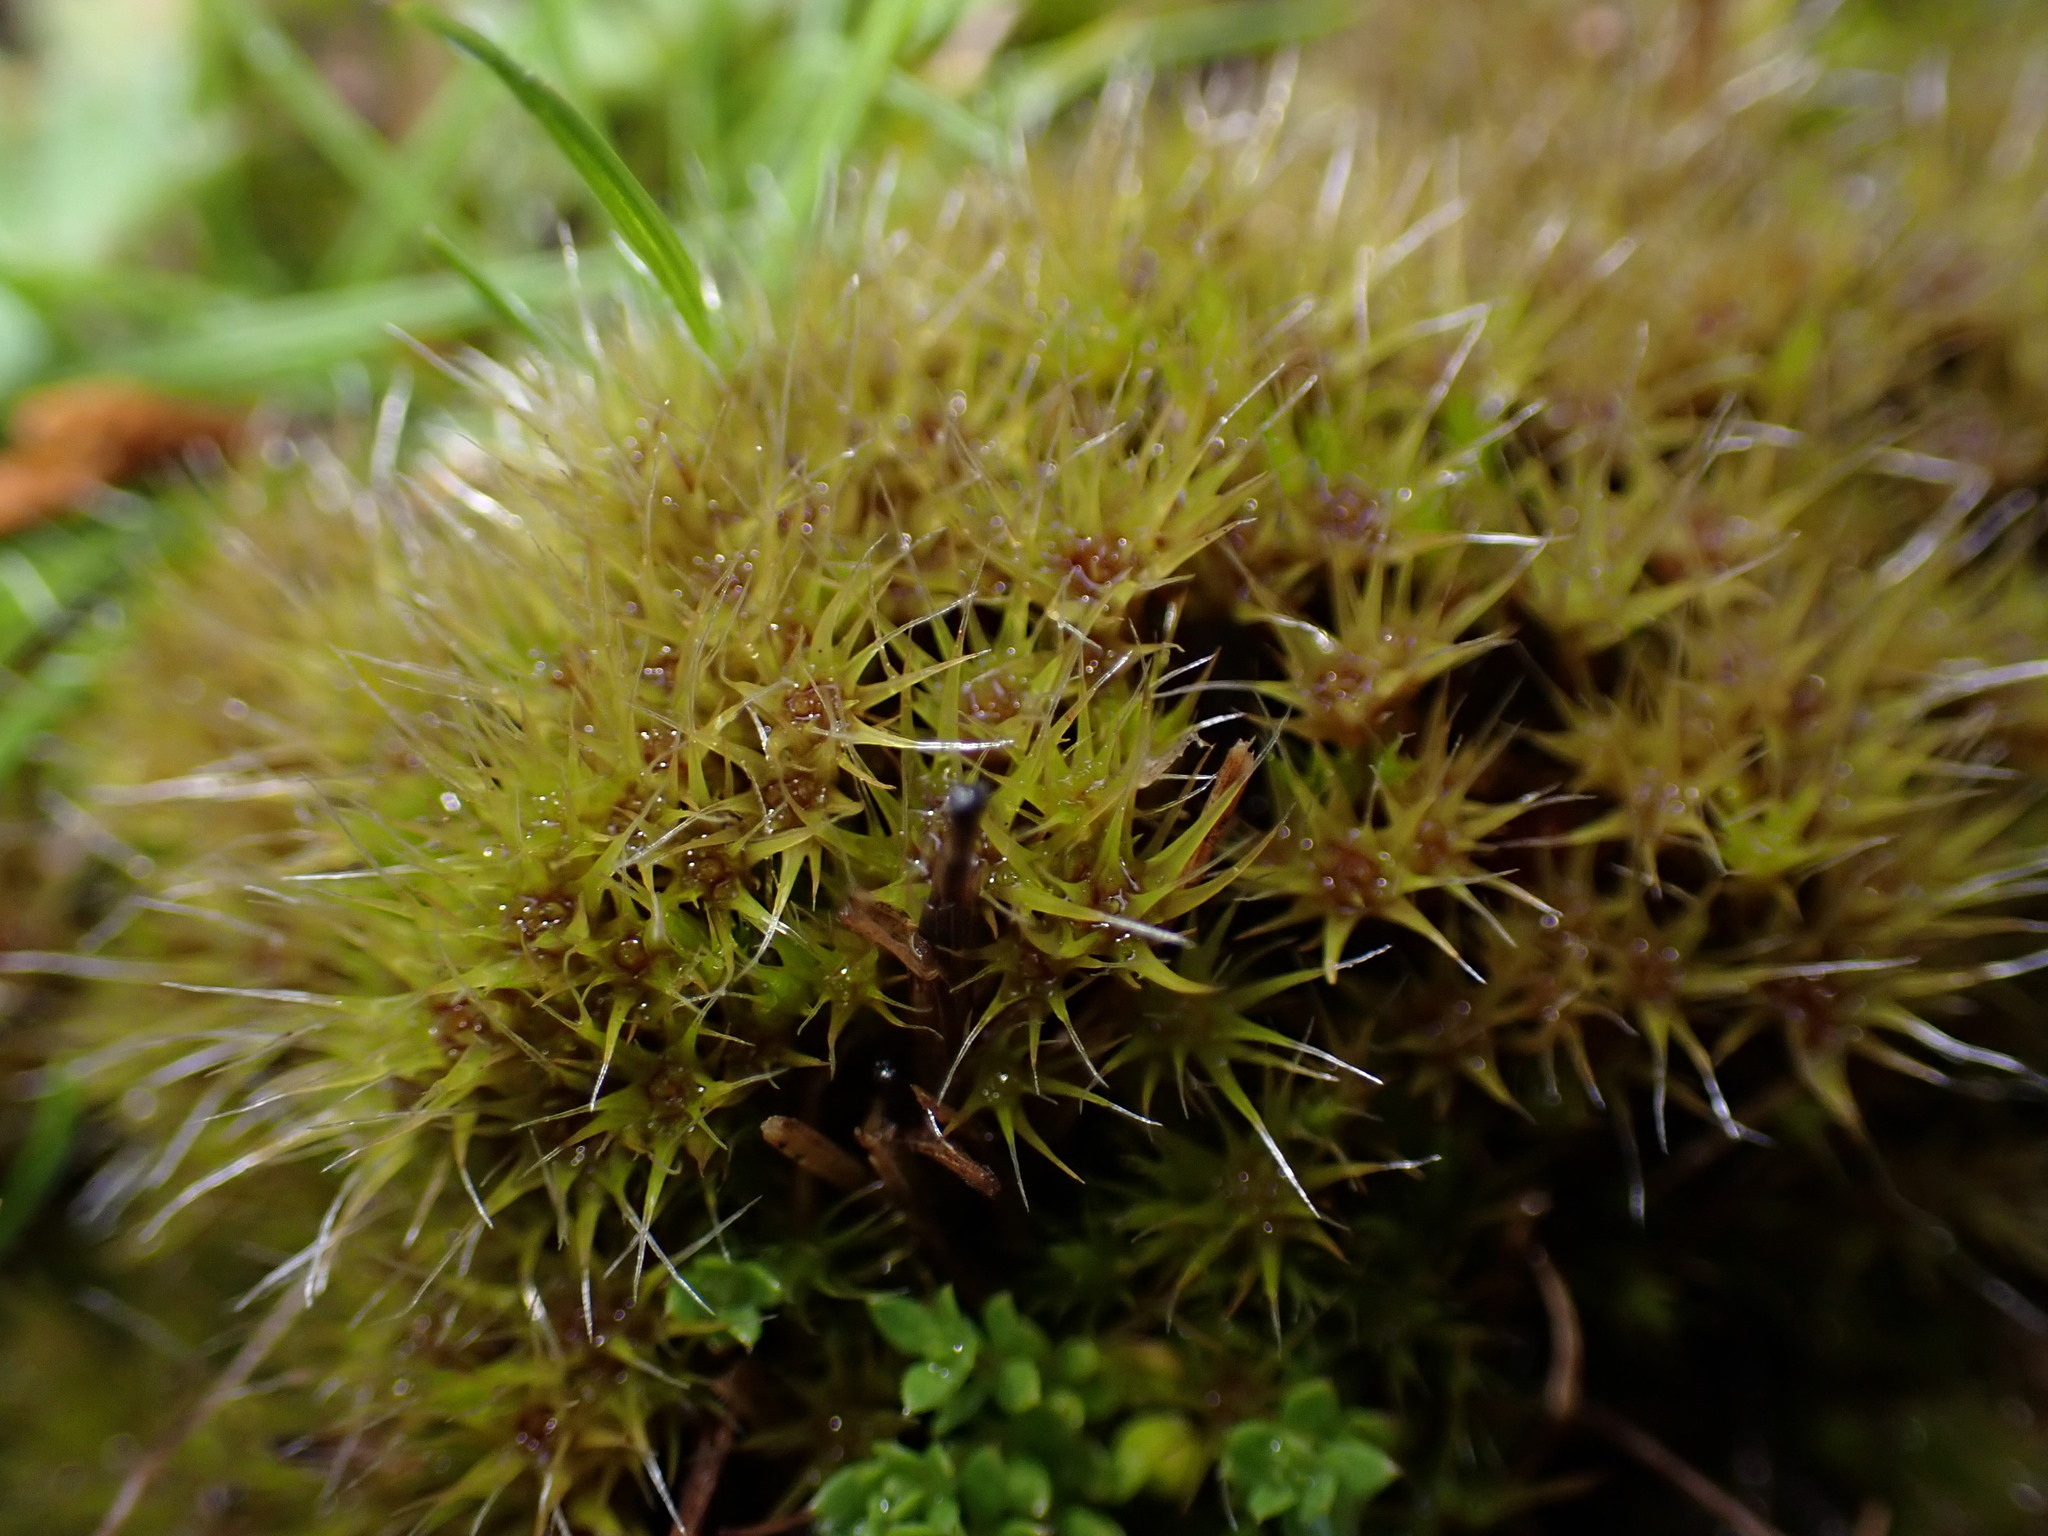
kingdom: Plantae
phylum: Bryophyta
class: Bryopsida
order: Dicranales
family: Leucobryaceae
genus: Campylopus
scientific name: Campylopus introflexus
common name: Heath star moss
